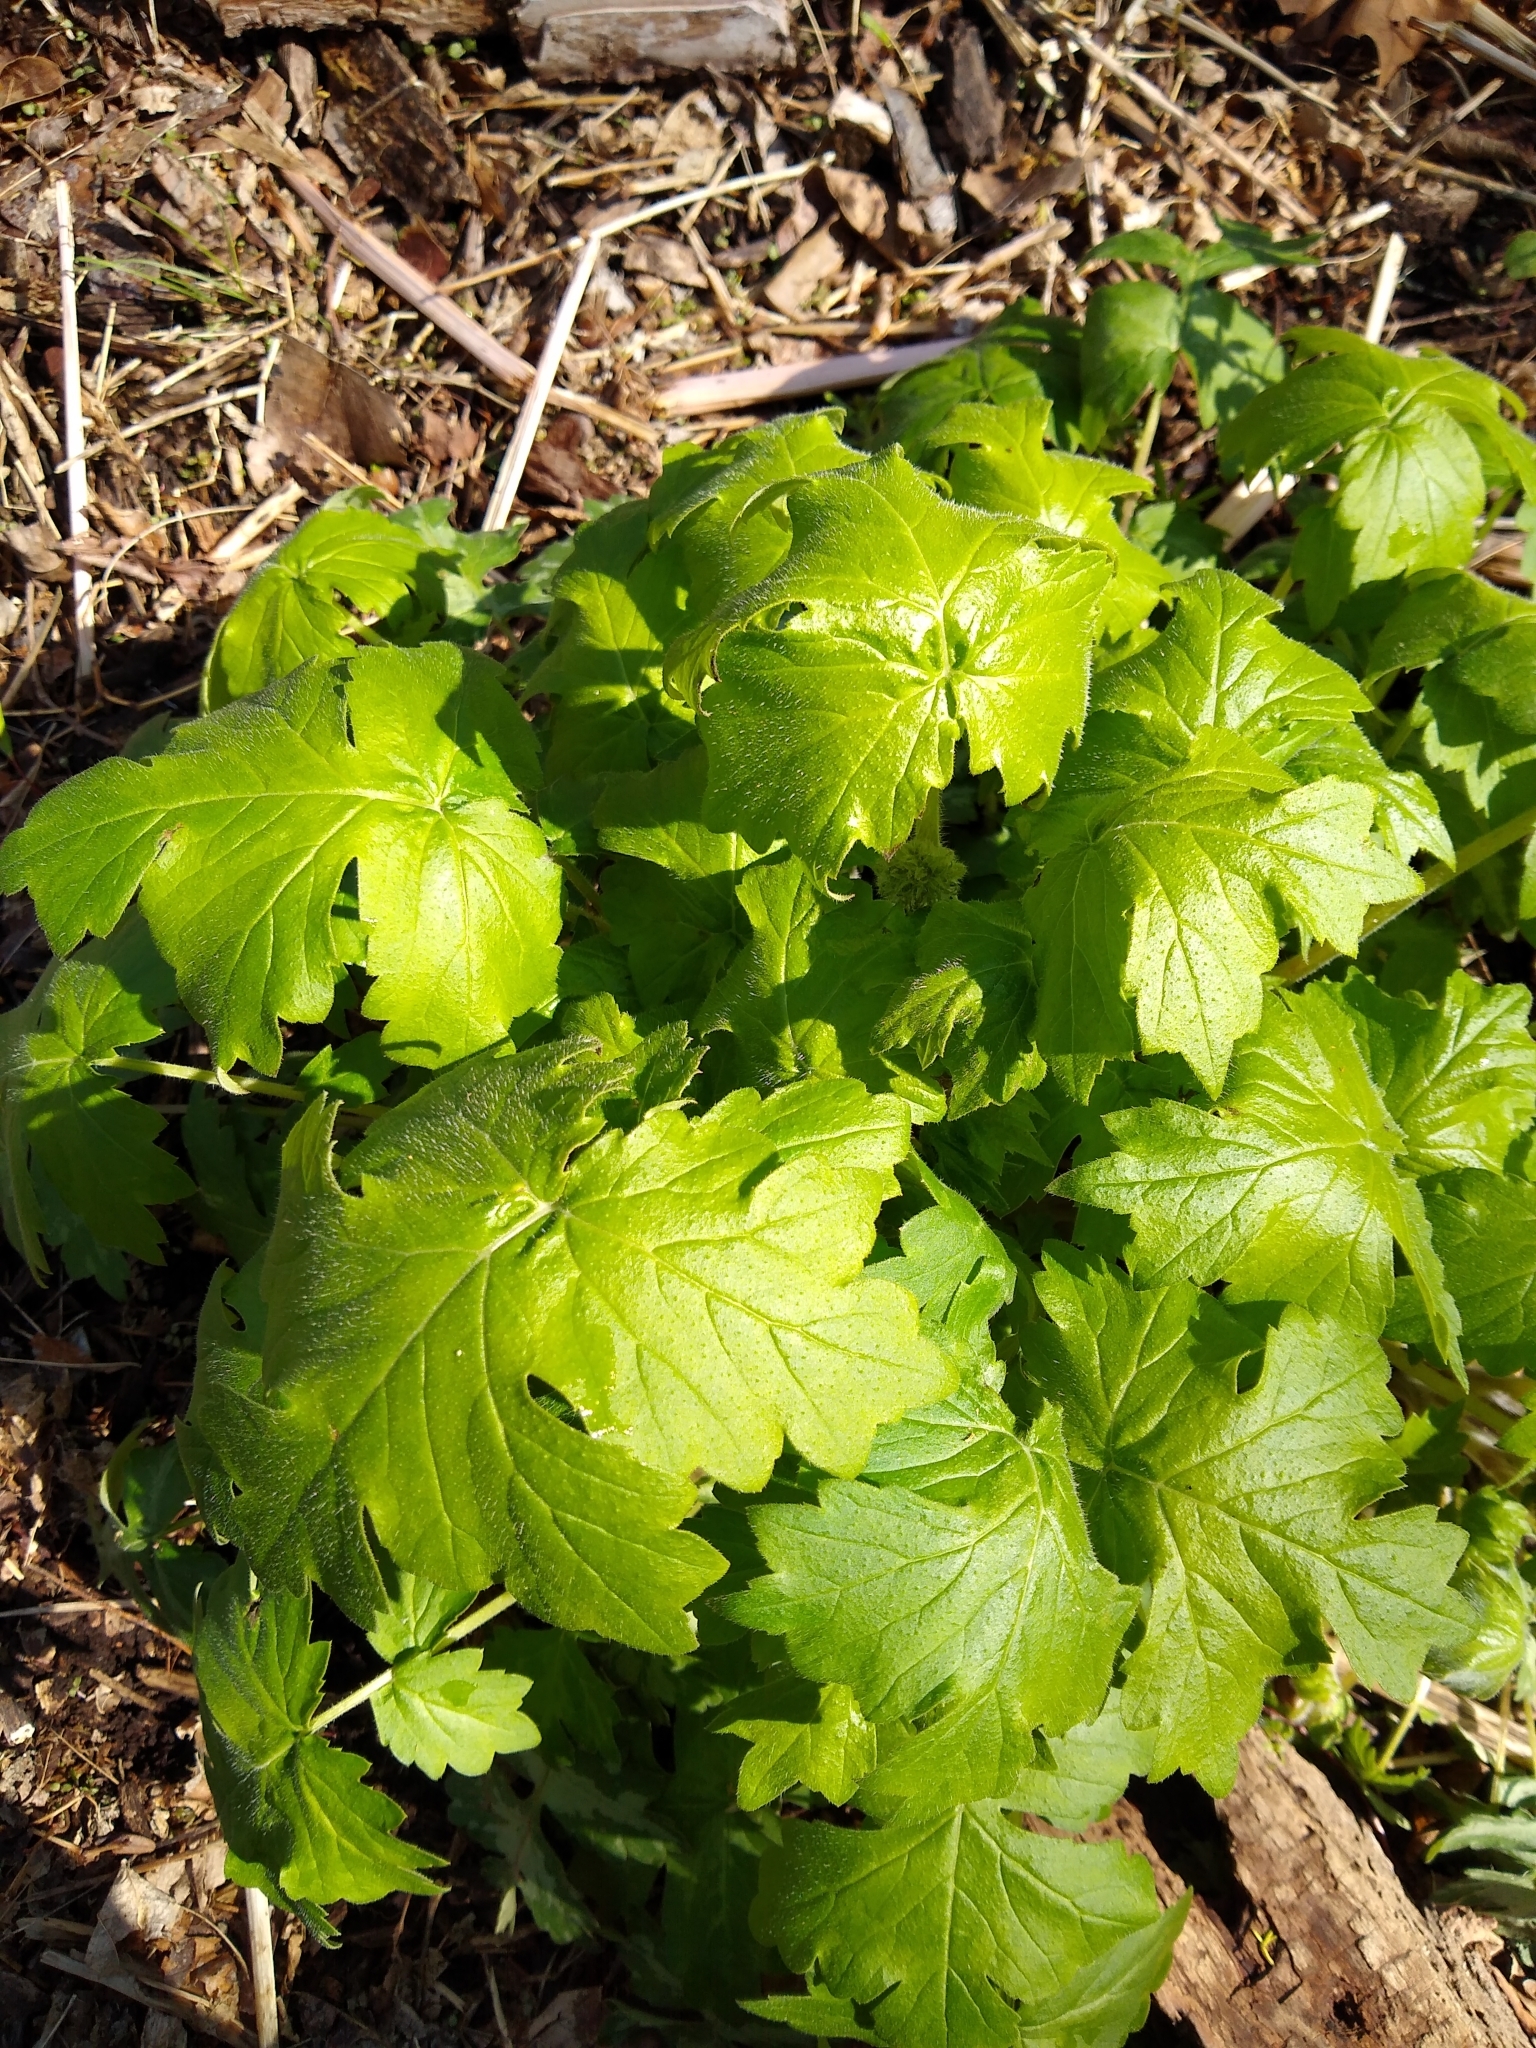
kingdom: Plantae
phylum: Tracheophyta
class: Magnoliopsida
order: Boraginales
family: Hydrophyllaceae
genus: Hydrophyllum
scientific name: Hydrophyllum appendiculatum
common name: Appendaged waterleaf
